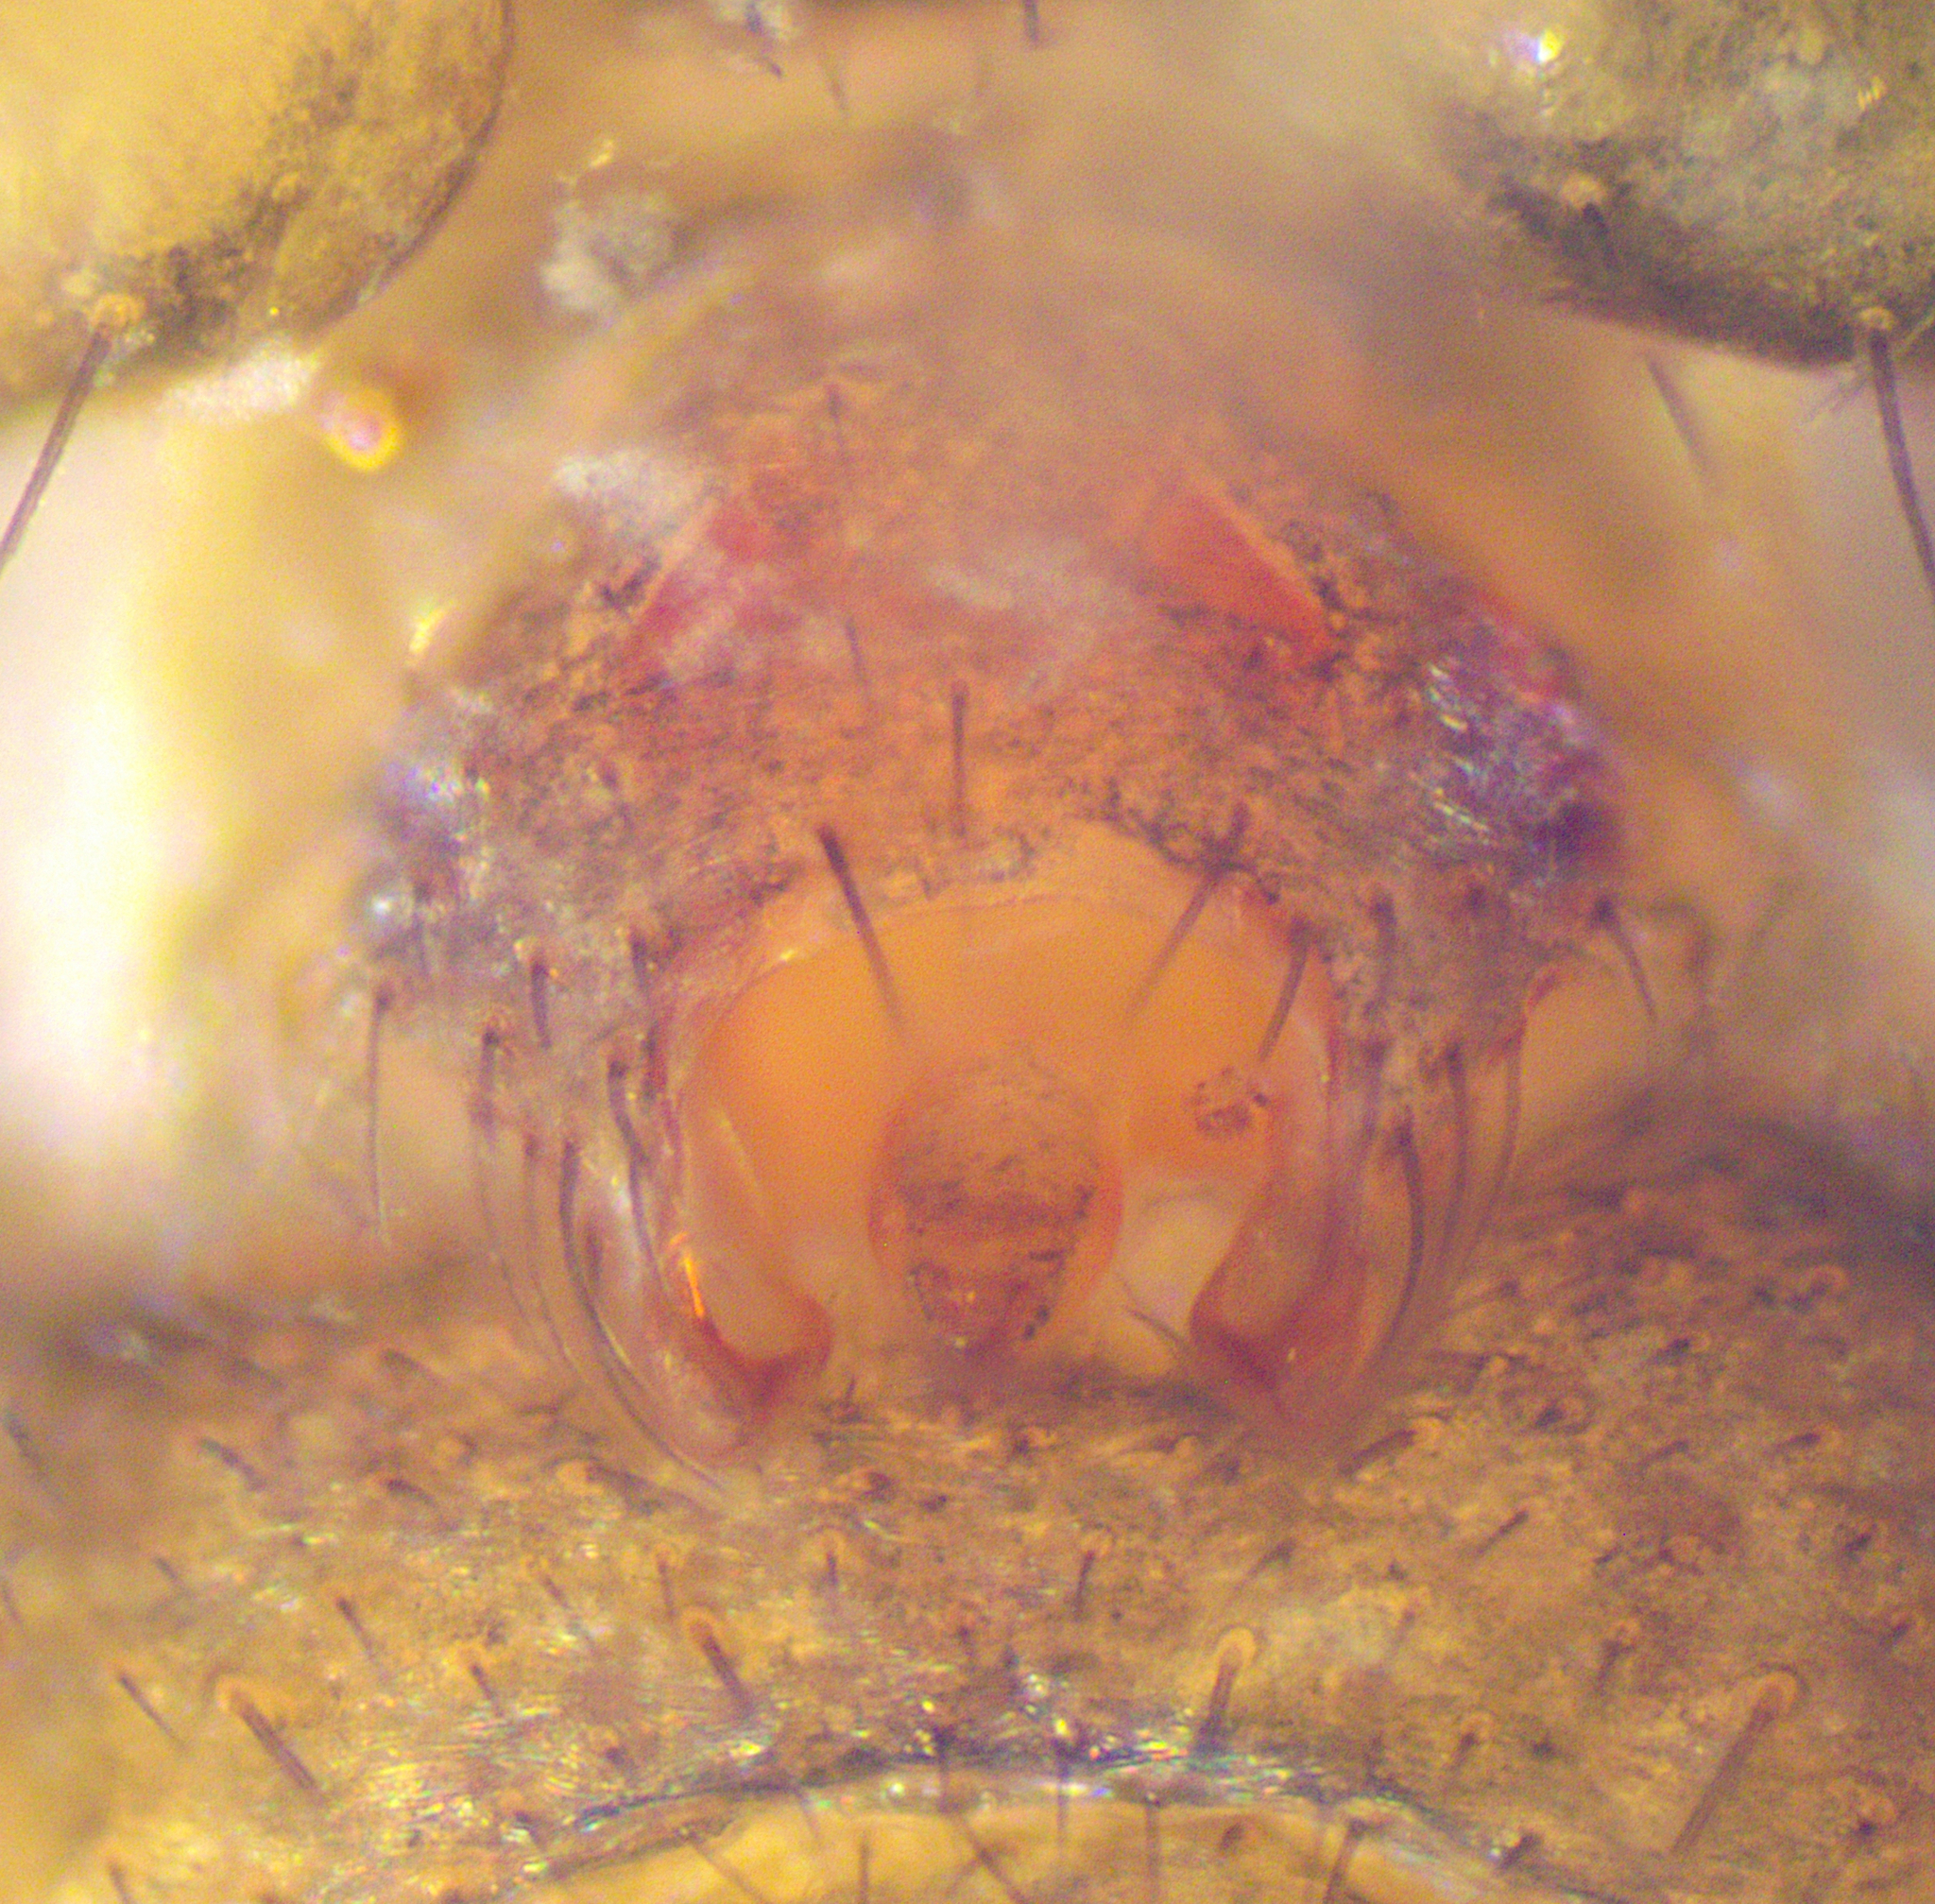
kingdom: Animalia
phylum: Arthropoda
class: Arachnida
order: Araneae
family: Linyphiidae
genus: Laetesia
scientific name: Laetesia
